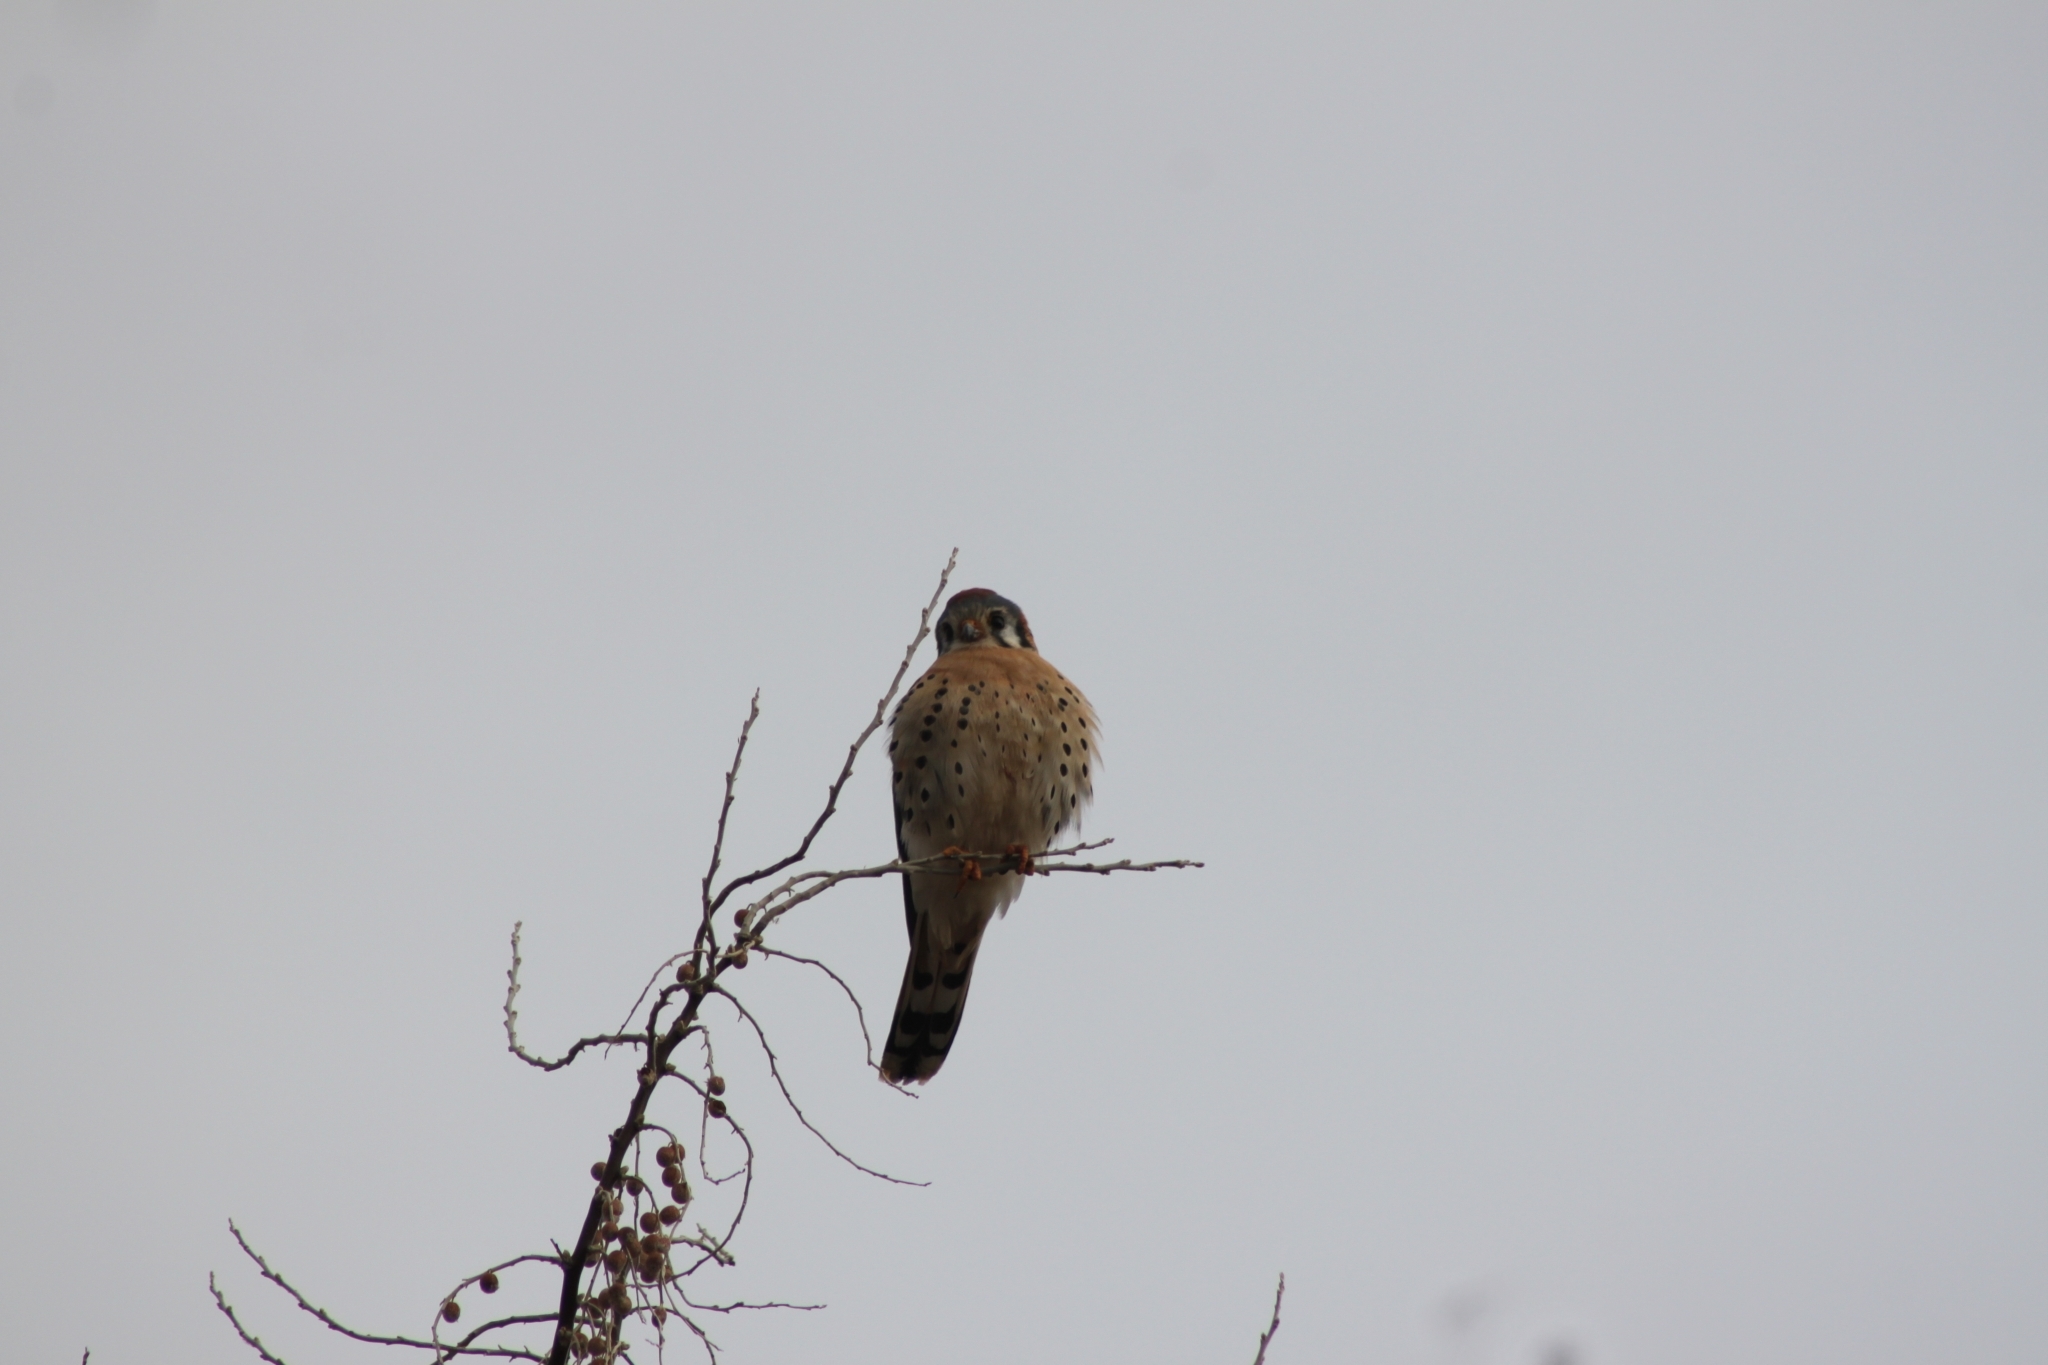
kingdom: Animalia
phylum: Chordata
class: Aves
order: Falconiformes
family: Falconidae
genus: Falco
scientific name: Falco sparverius
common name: American kestrel
